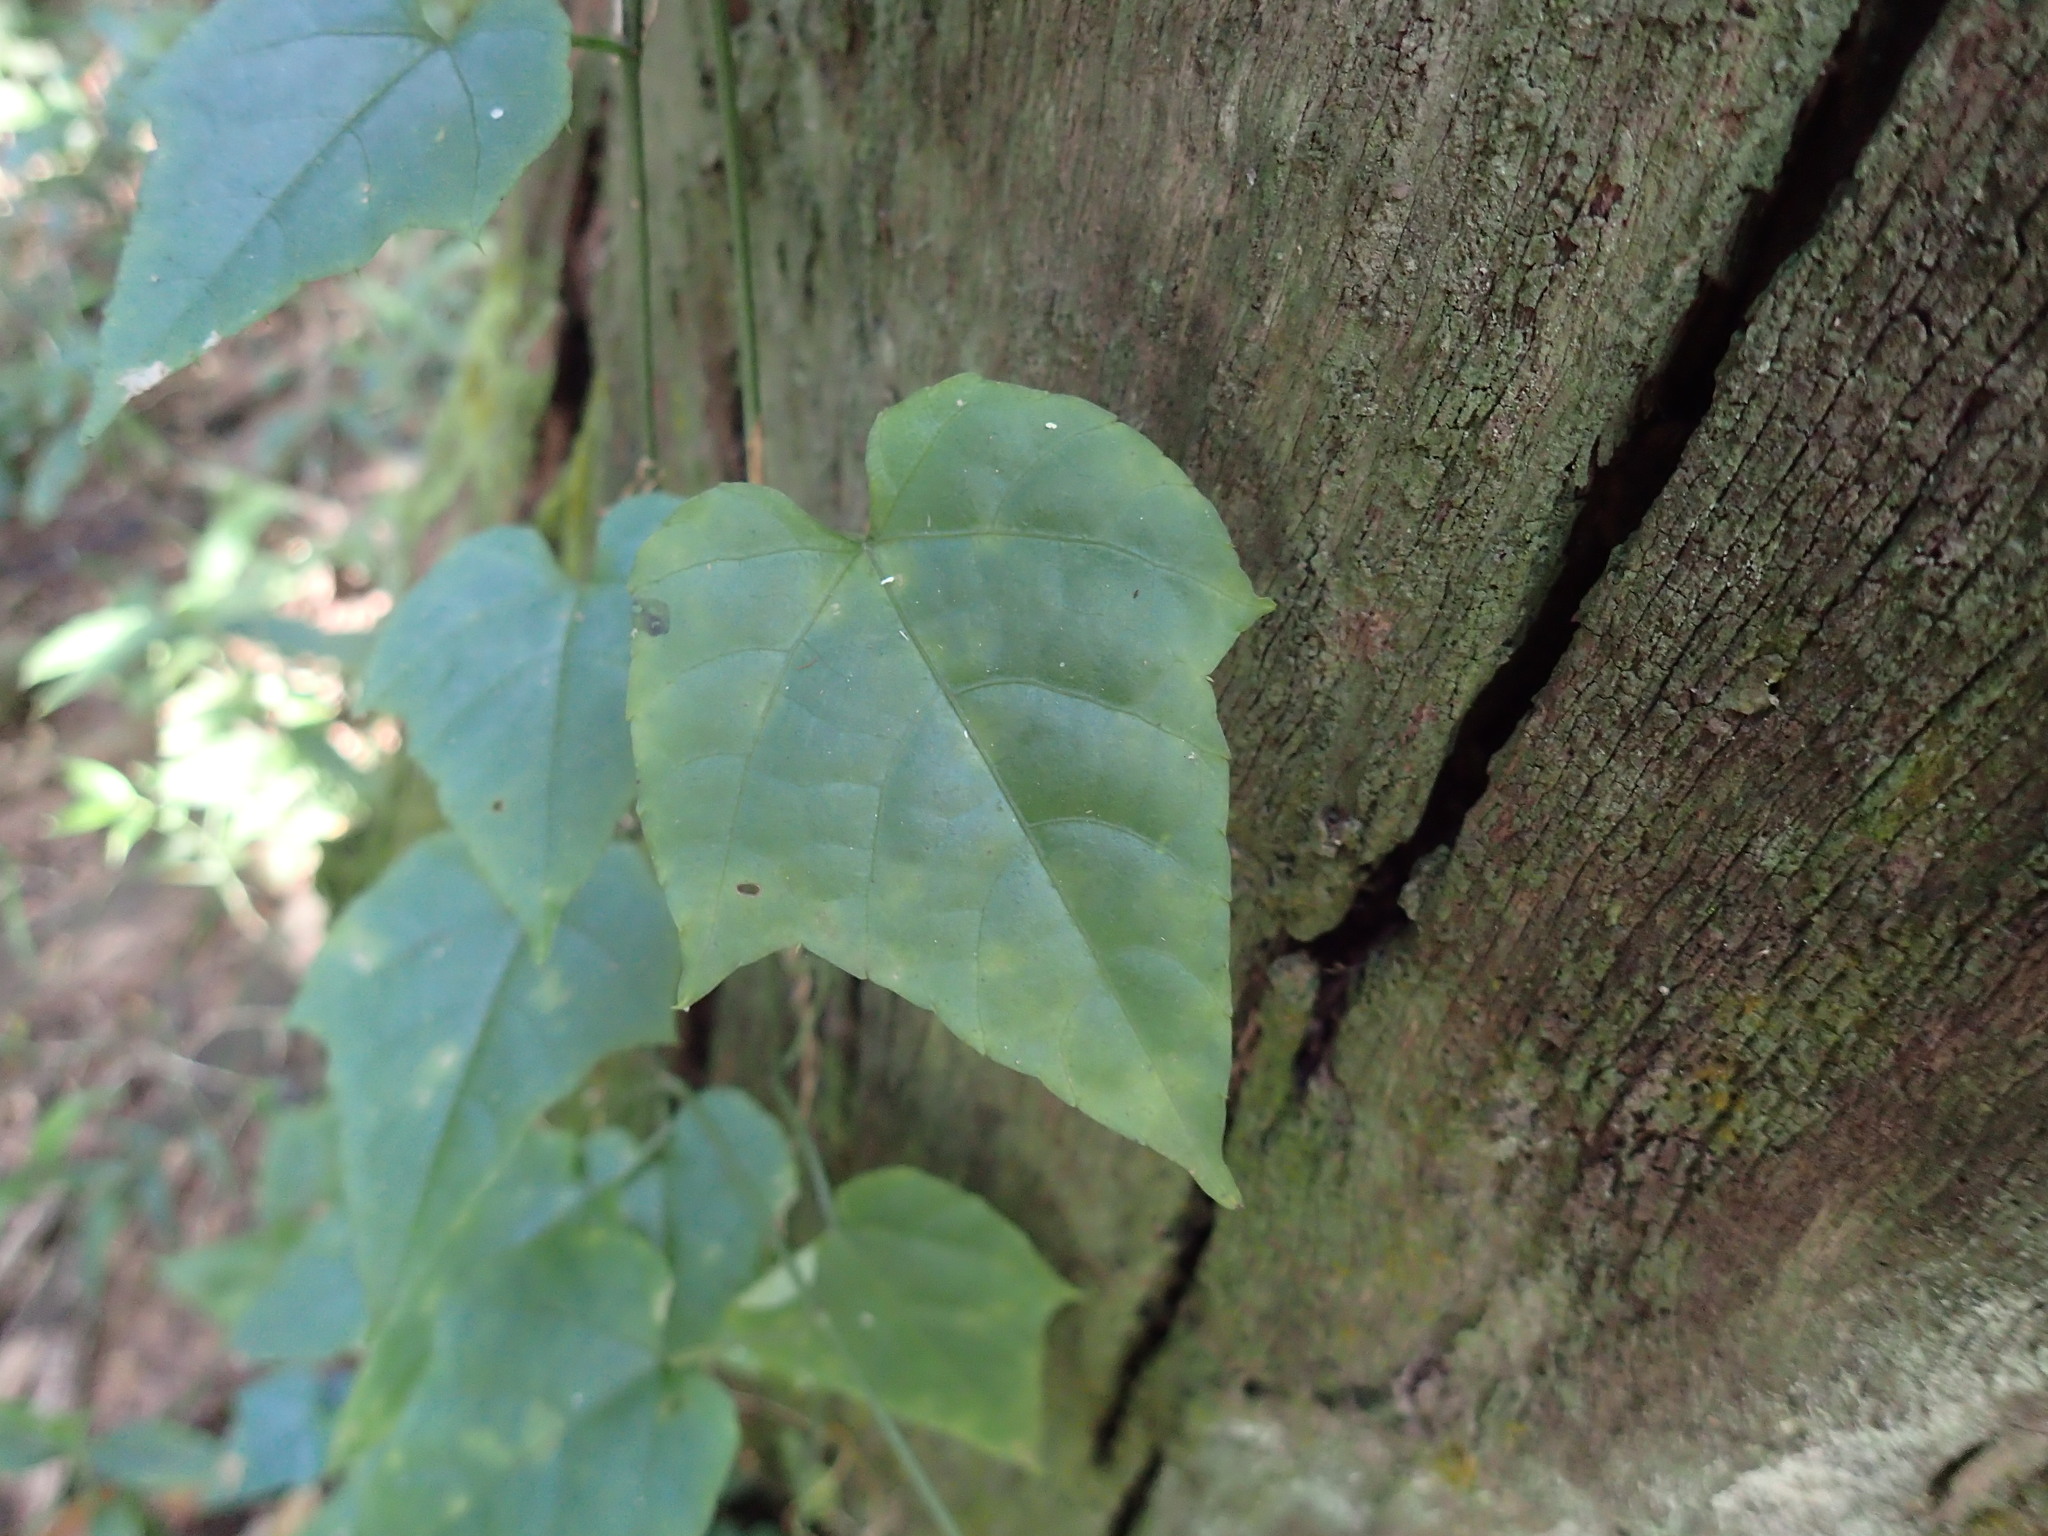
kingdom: Plantae
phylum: Tracheophyta
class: Magnoliopsida
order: Vitales
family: Vitaceae
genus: Cissus
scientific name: Cissus fragilis
